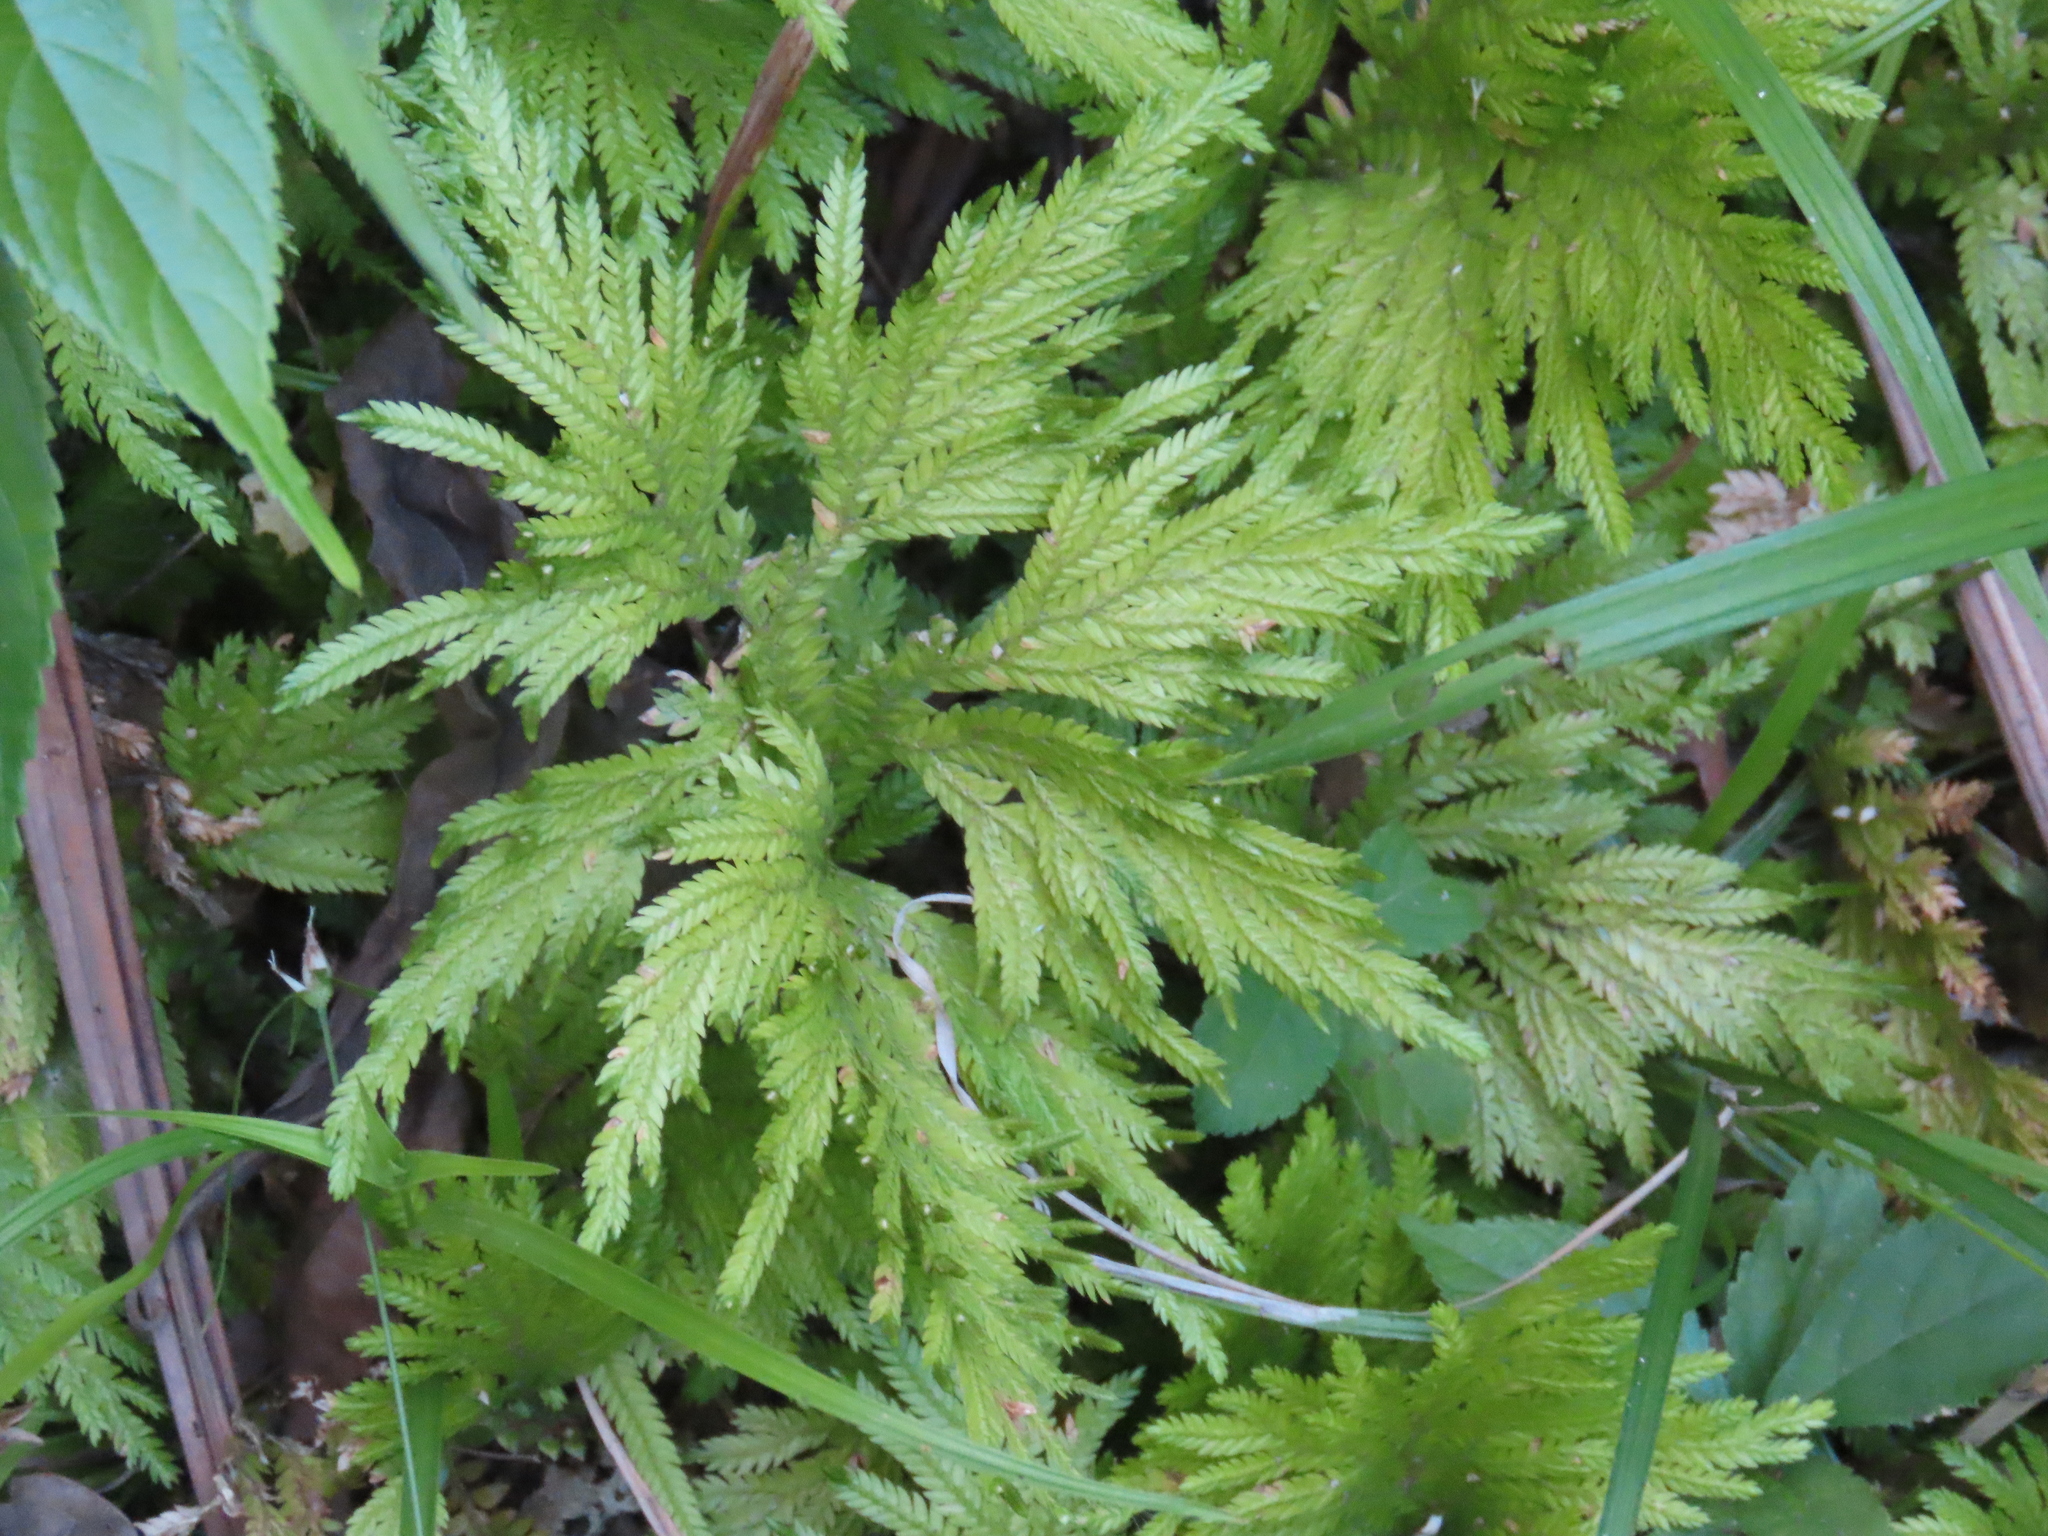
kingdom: Plantae
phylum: Tracheophyta
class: Lycopodiopsida
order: Selaginellales
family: Selaginellaceae
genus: Selaginella
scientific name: Selaginella arthritica
